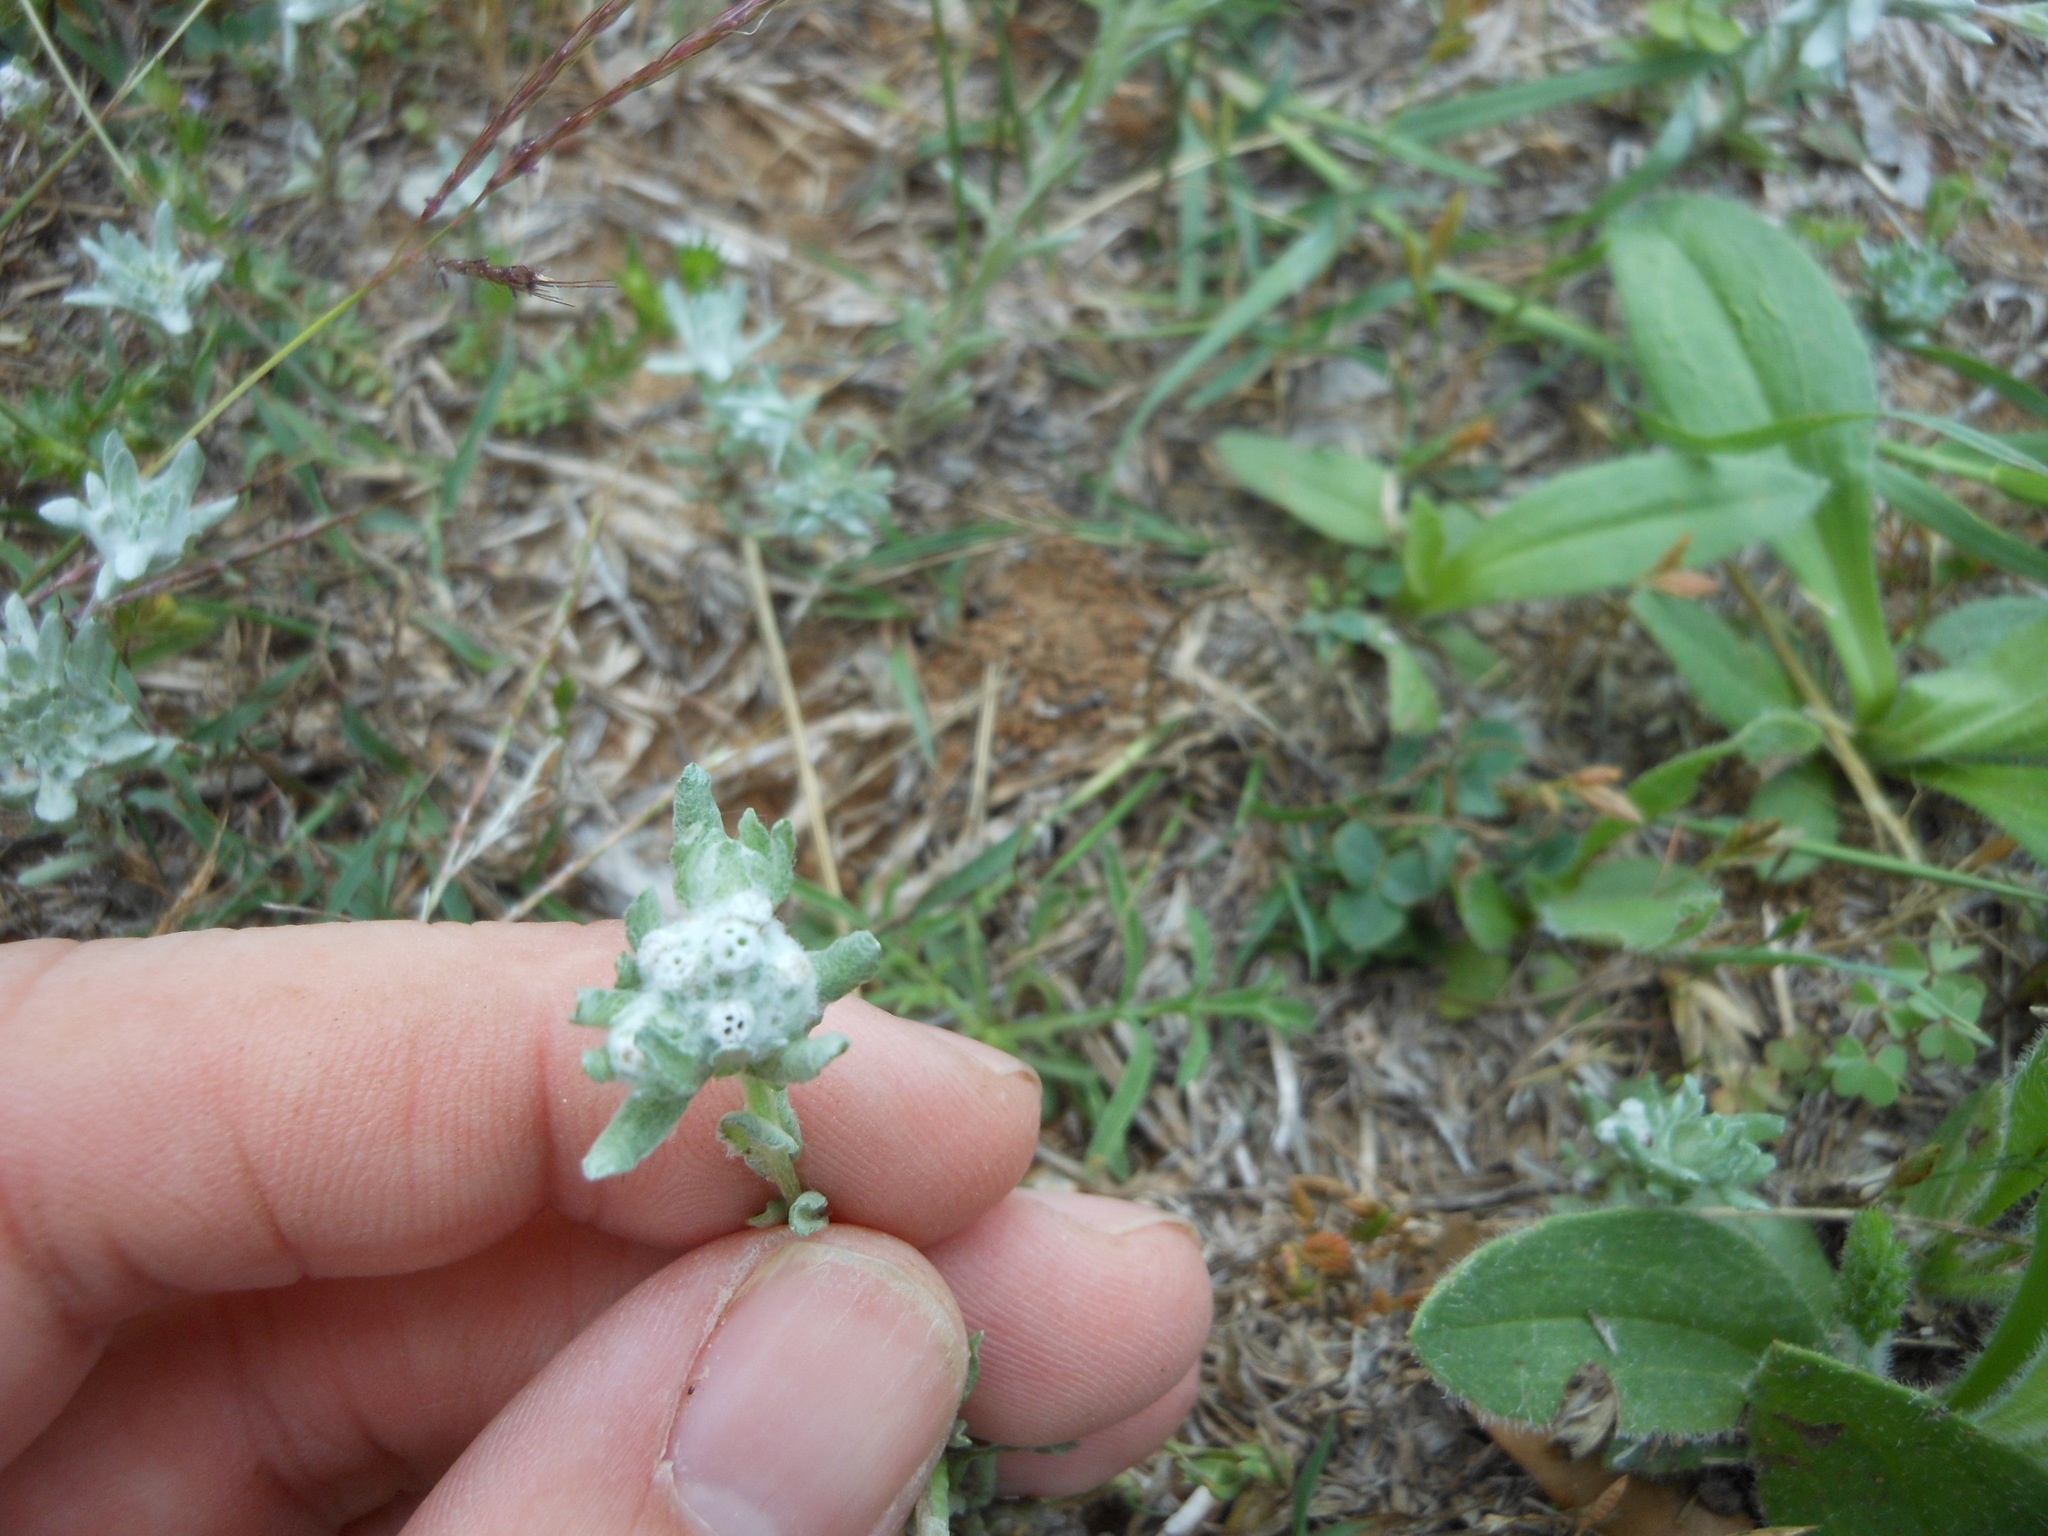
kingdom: Plantae
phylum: Tracheophyta
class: Magnoliopsida
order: Asterales
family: Asteraceae
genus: Diaperia
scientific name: Diaperia prolifera
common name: Big-head rabbit-tobacco
